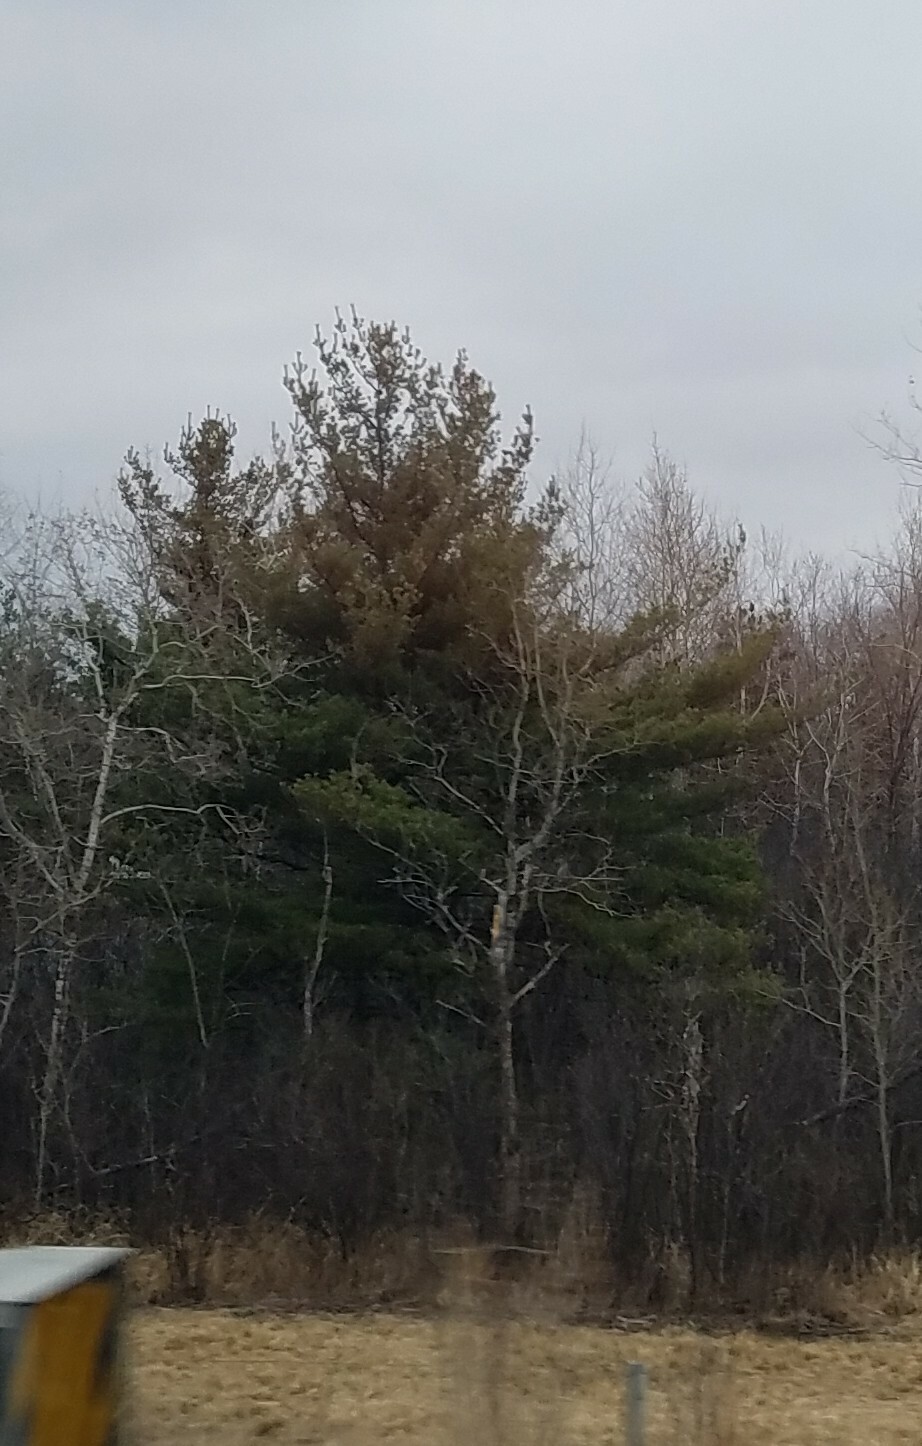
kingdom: Plantae
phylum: Tracheophyta
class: Pinopsida
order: Pinales
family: Pinaceae
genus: Pinus
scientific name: Pinus strobus
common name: Weymouth pine
